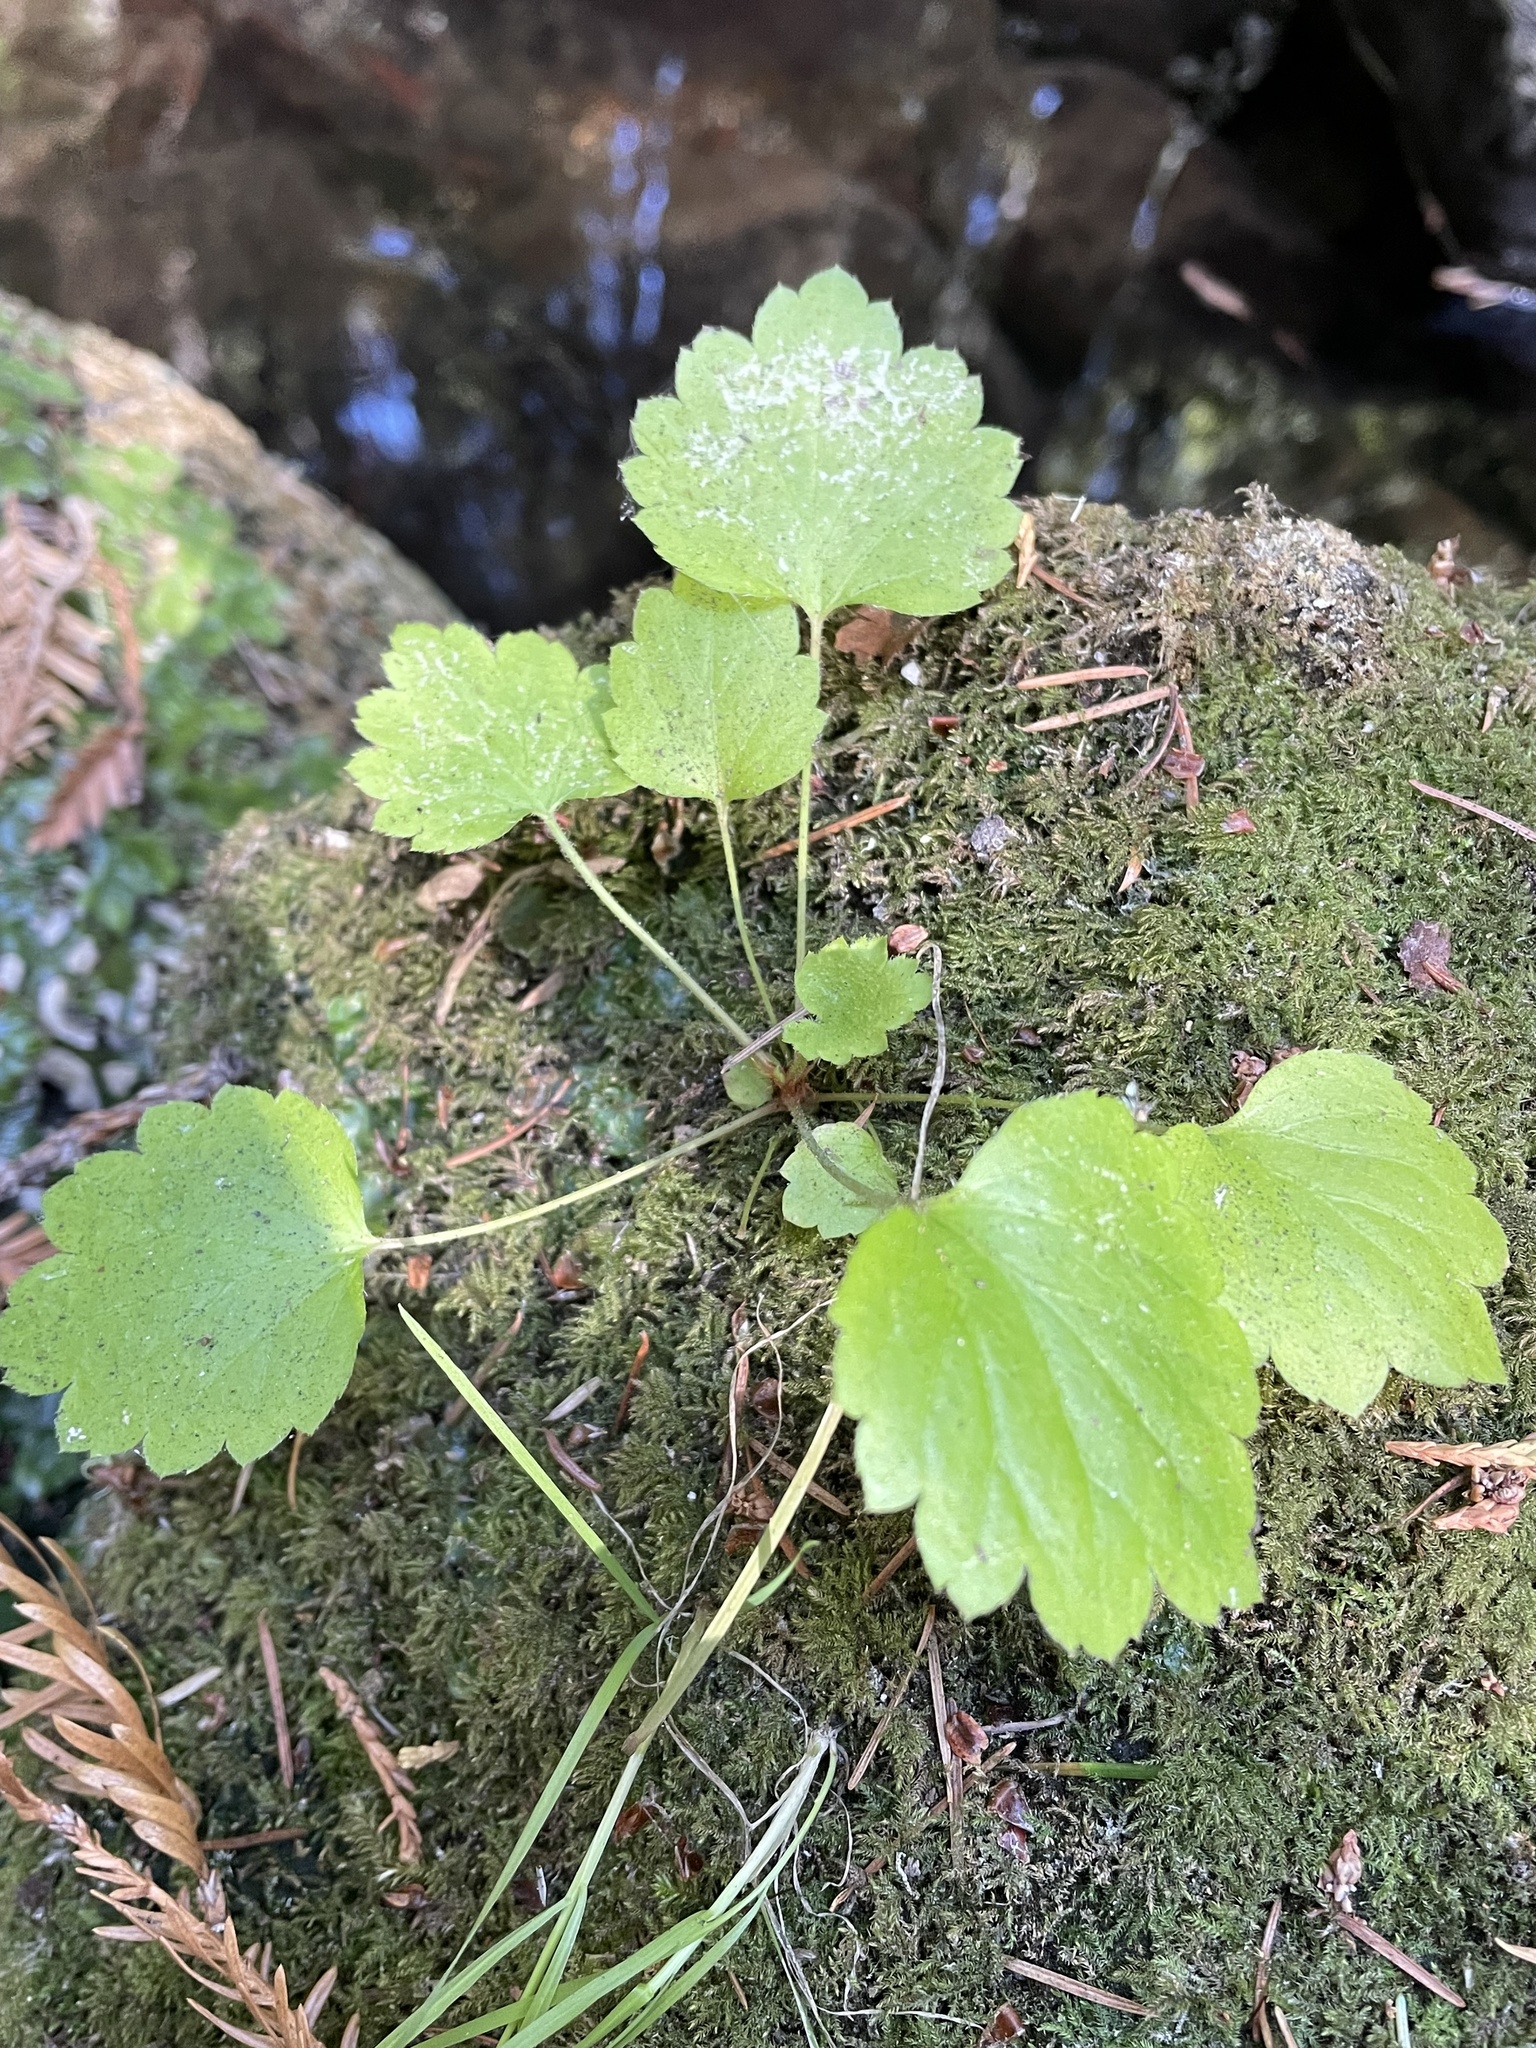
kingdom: Plantae
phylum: Tracheophyta
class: Magnoliopsida
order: Saxifragales
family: Saxifragaceae
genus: Boykinia
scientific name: Boykinia occidentalis
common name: Coast boykinia
